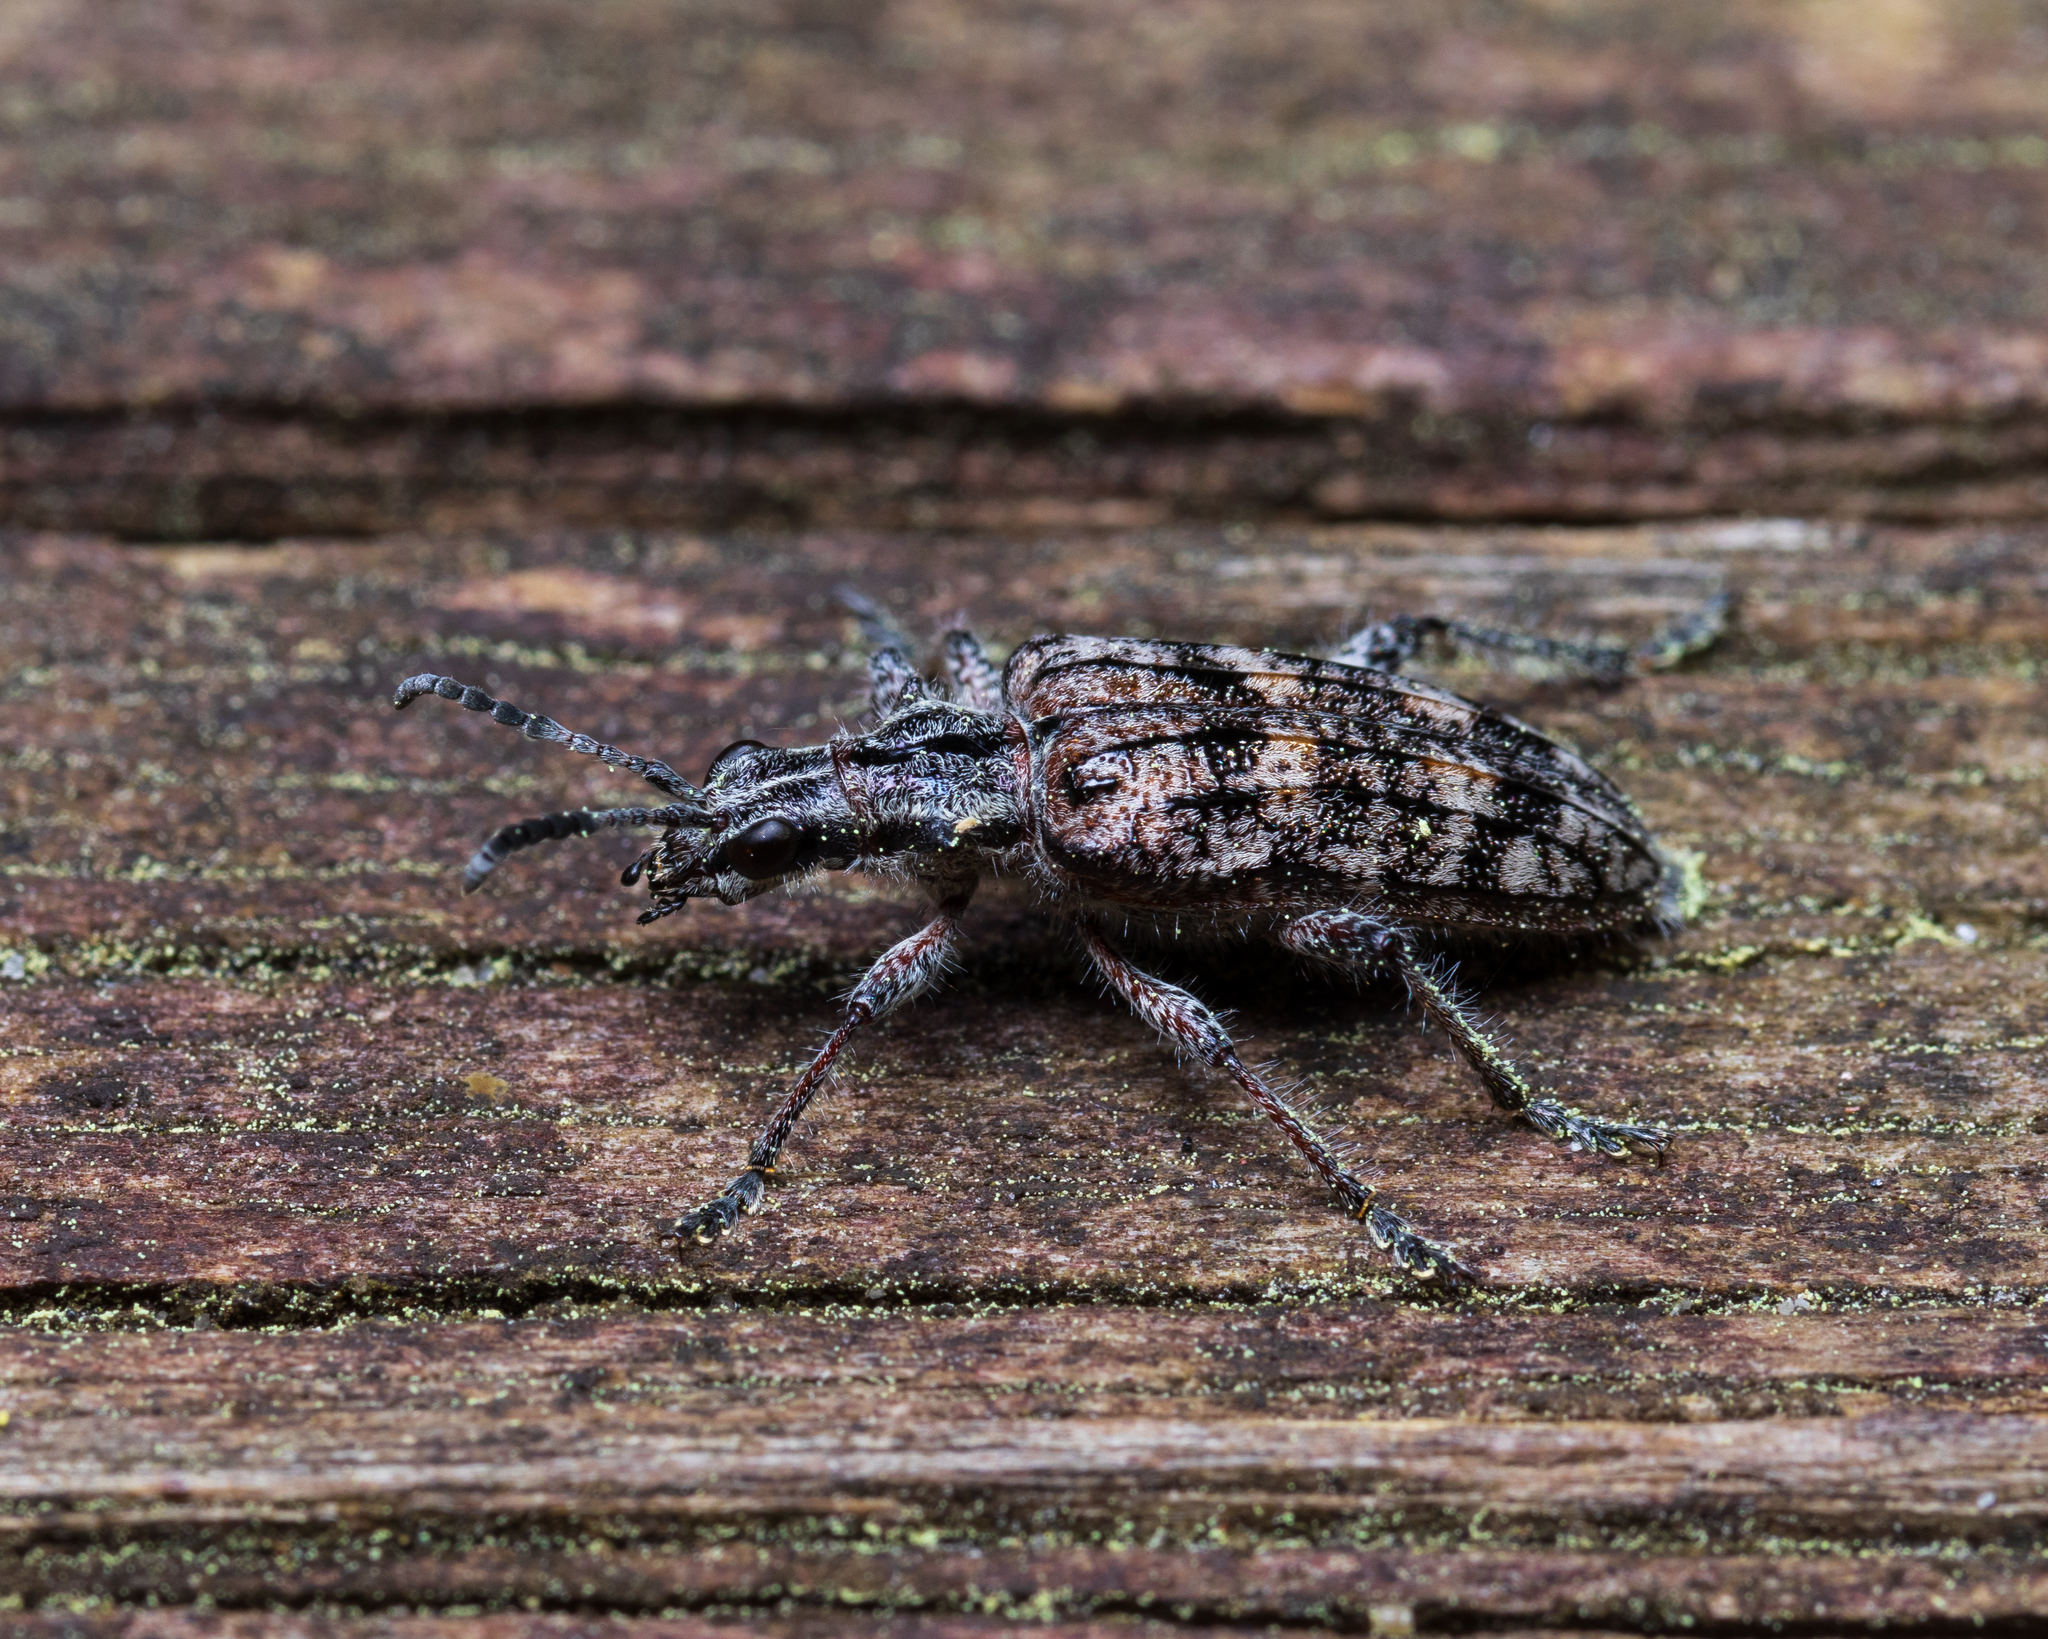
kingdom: Animalia
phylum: Arthropoda
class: Insecta
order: Coleoptera
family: Cerambycidae
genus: Rhagium
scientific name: Rhagium inquisitor
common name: Ribbed pine borer
